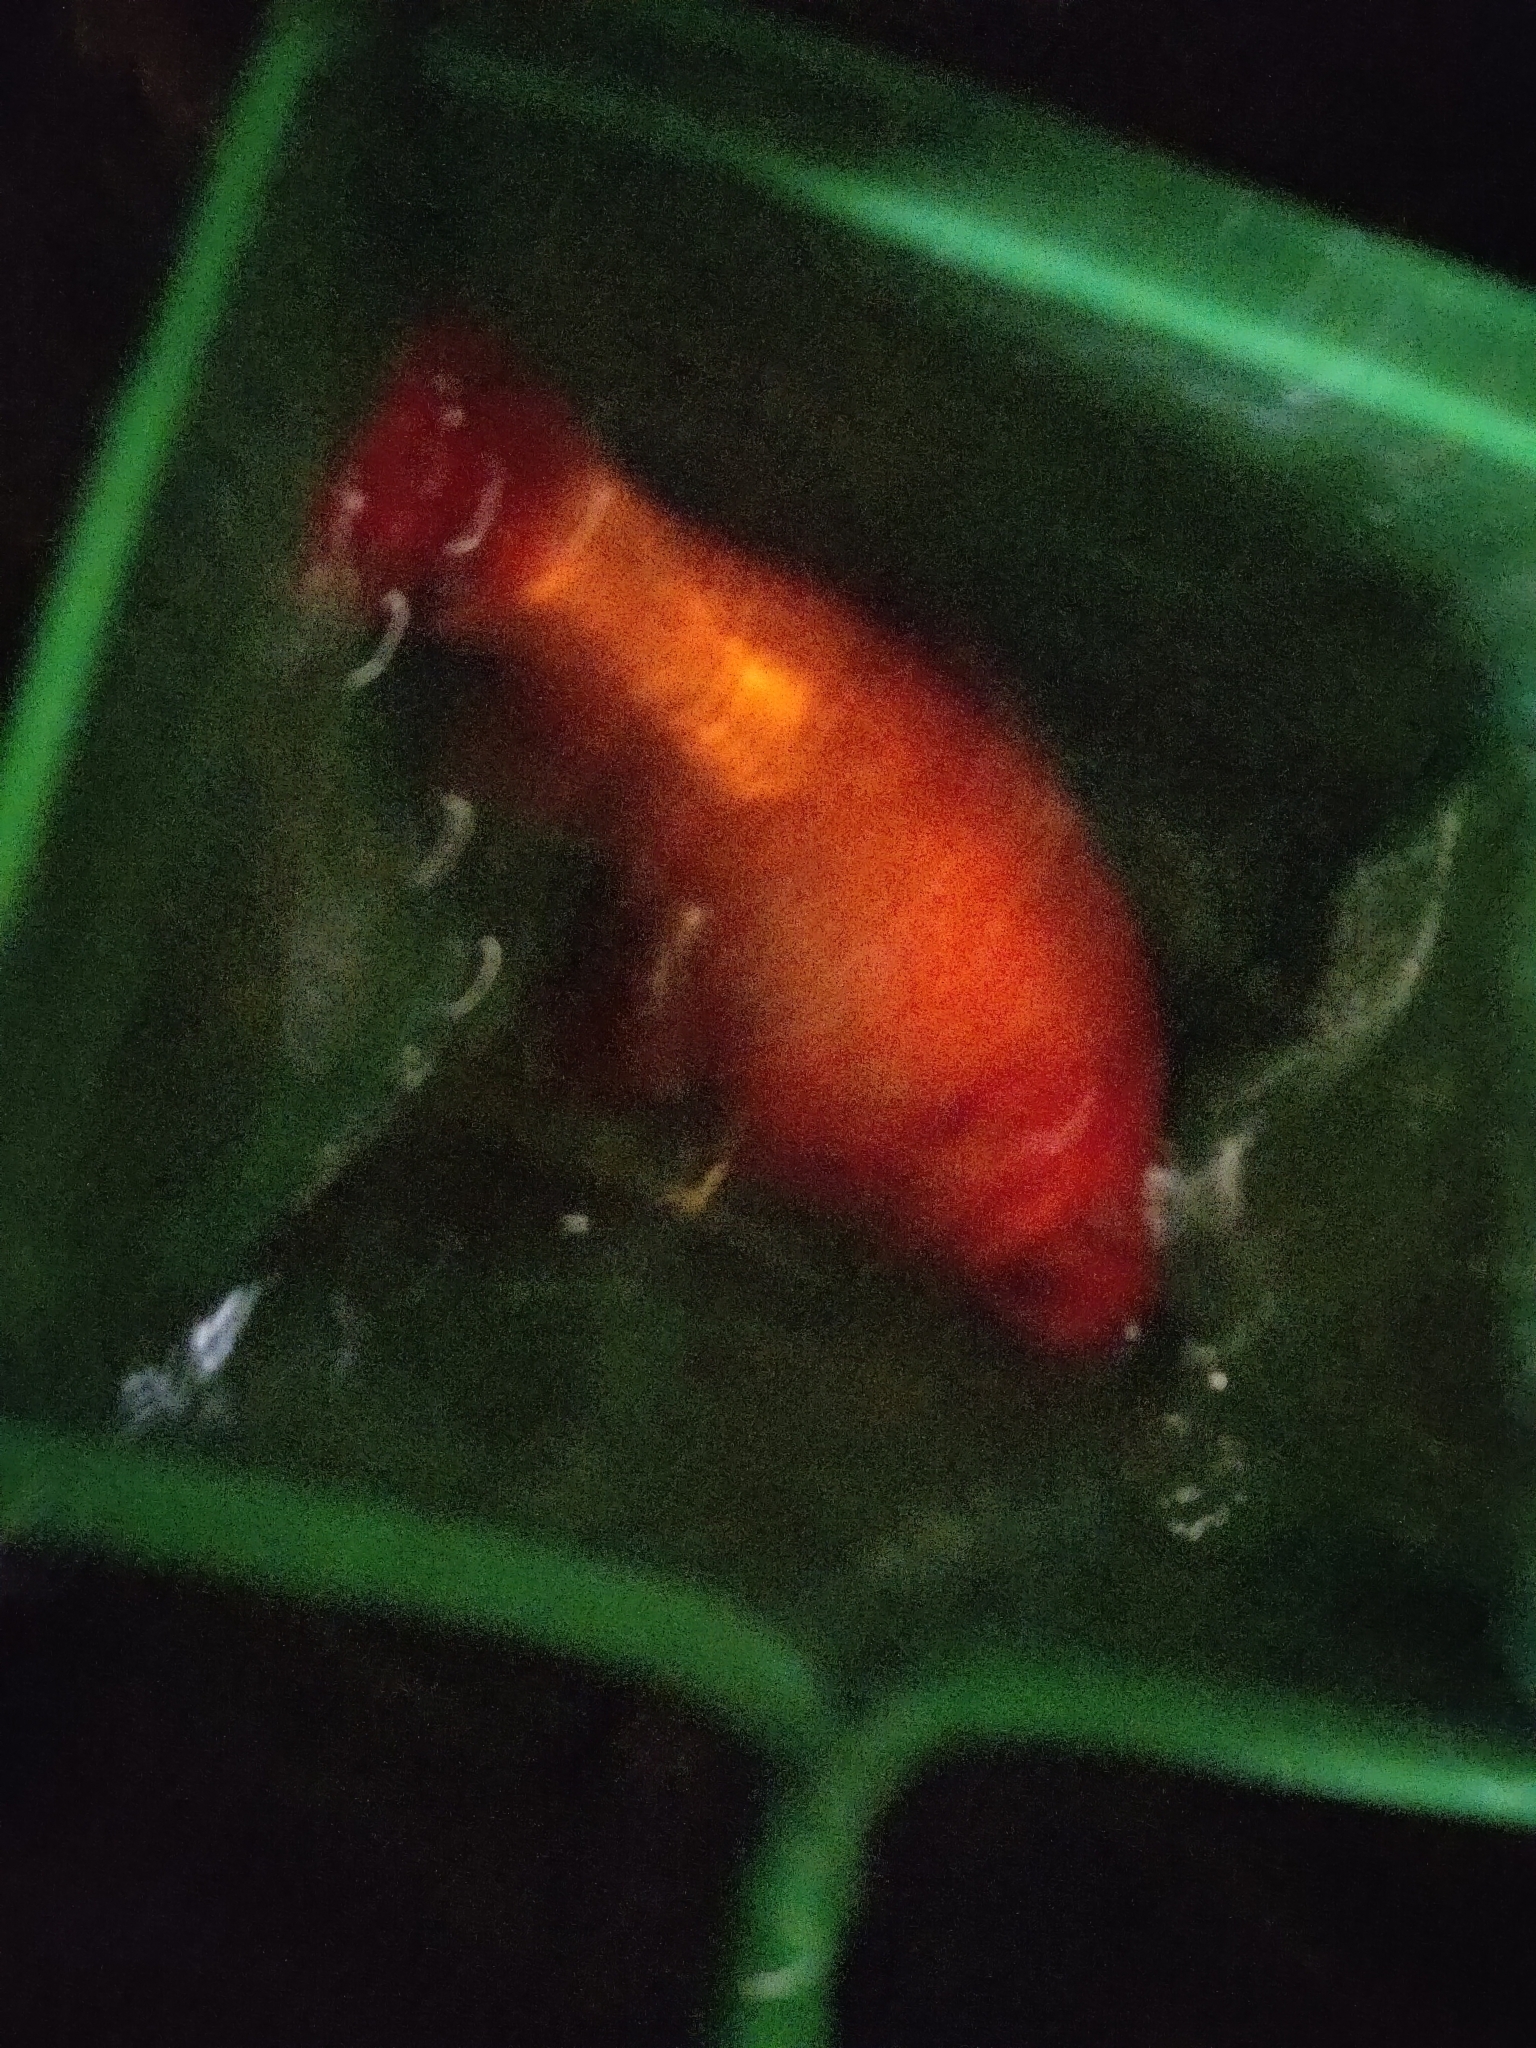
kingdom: Animalia
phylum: Chordata
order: Cypriniformes
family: Cyprinidae
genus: Carassius
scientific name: Carassius auratus
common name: Goldfish
